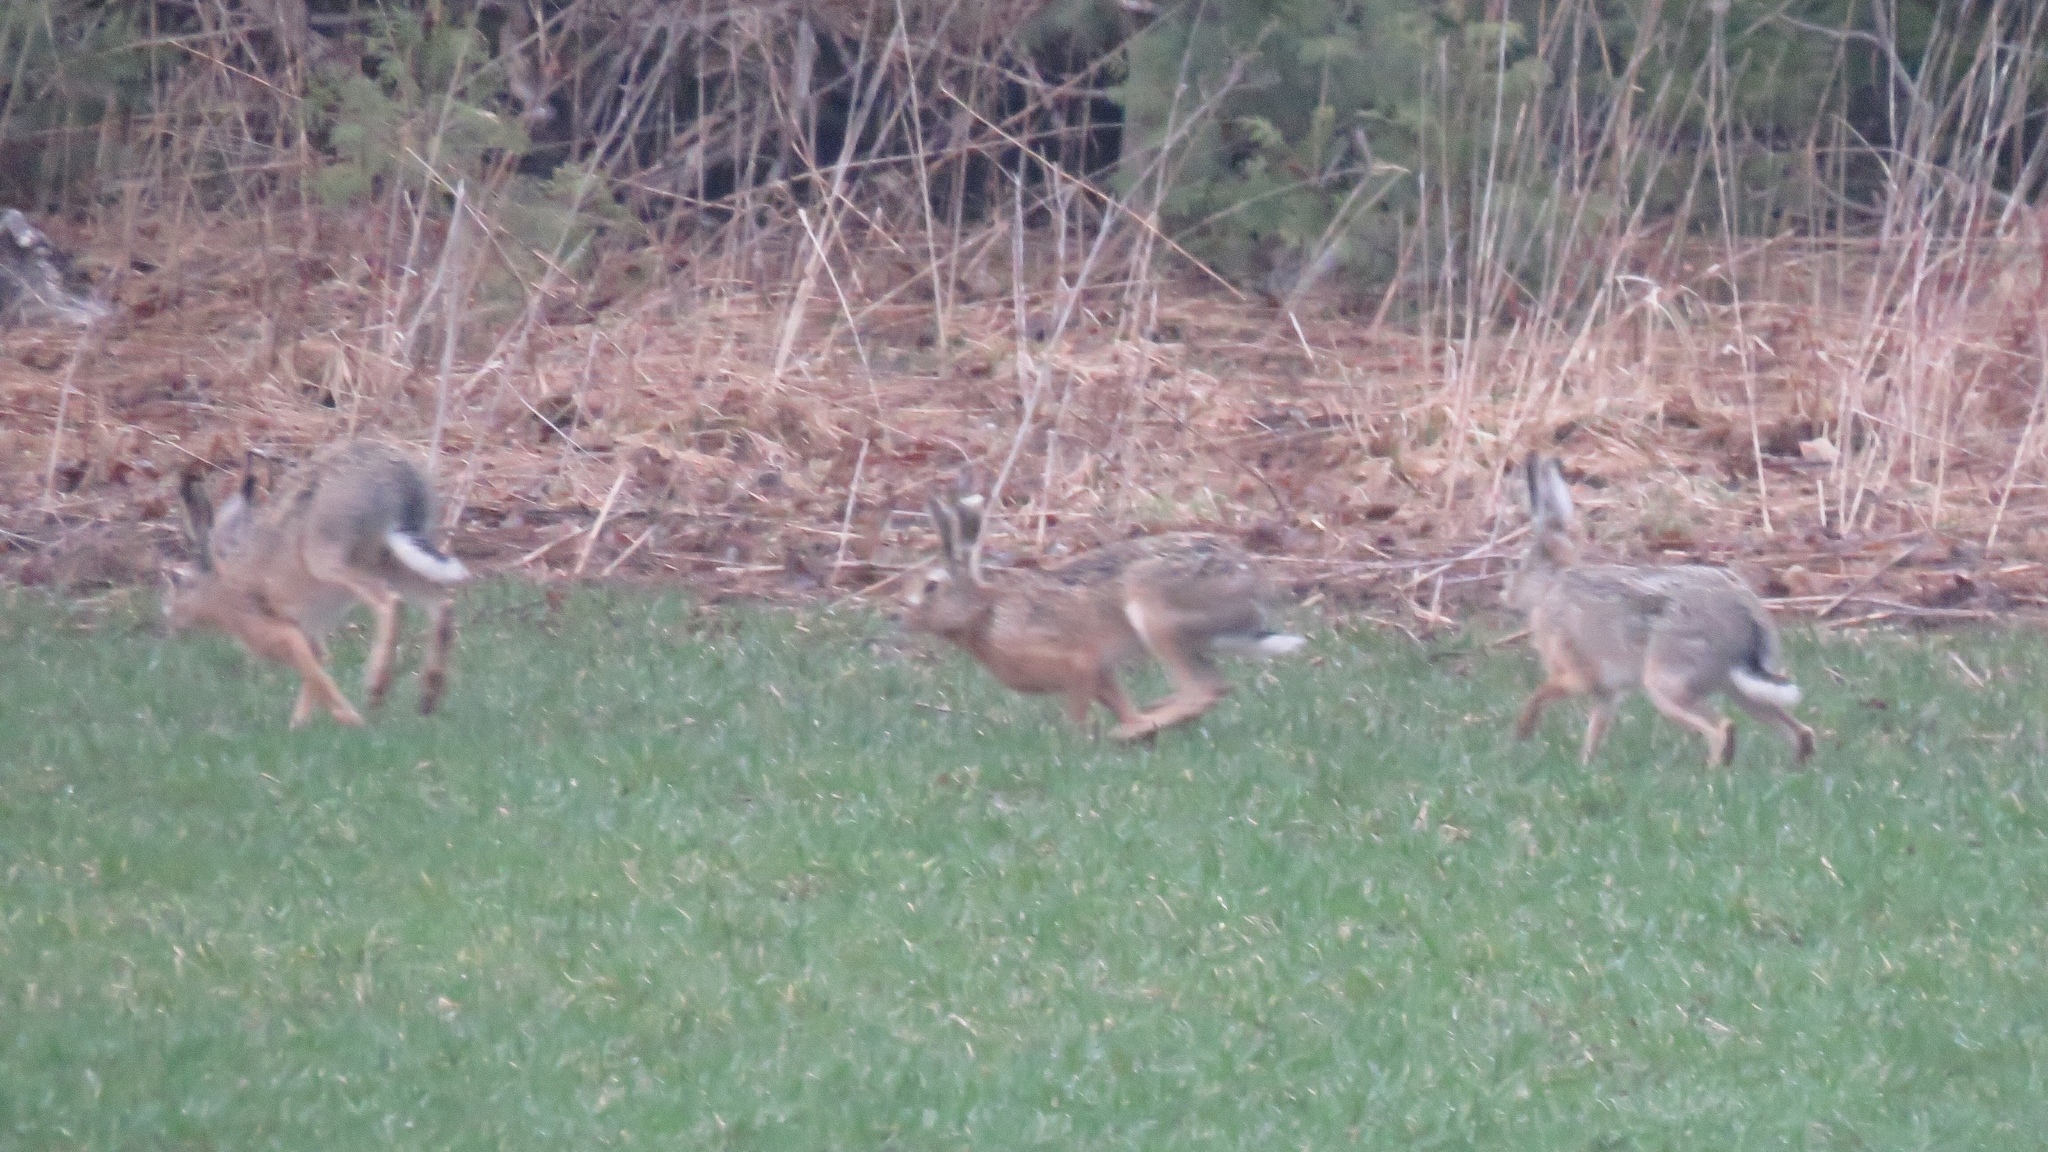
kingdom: Animalia
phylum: Chordata
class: Mammalia
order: Lagomorpha
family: Leporidae
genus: Lepus
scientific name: Lepus europaeus
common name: European hare
